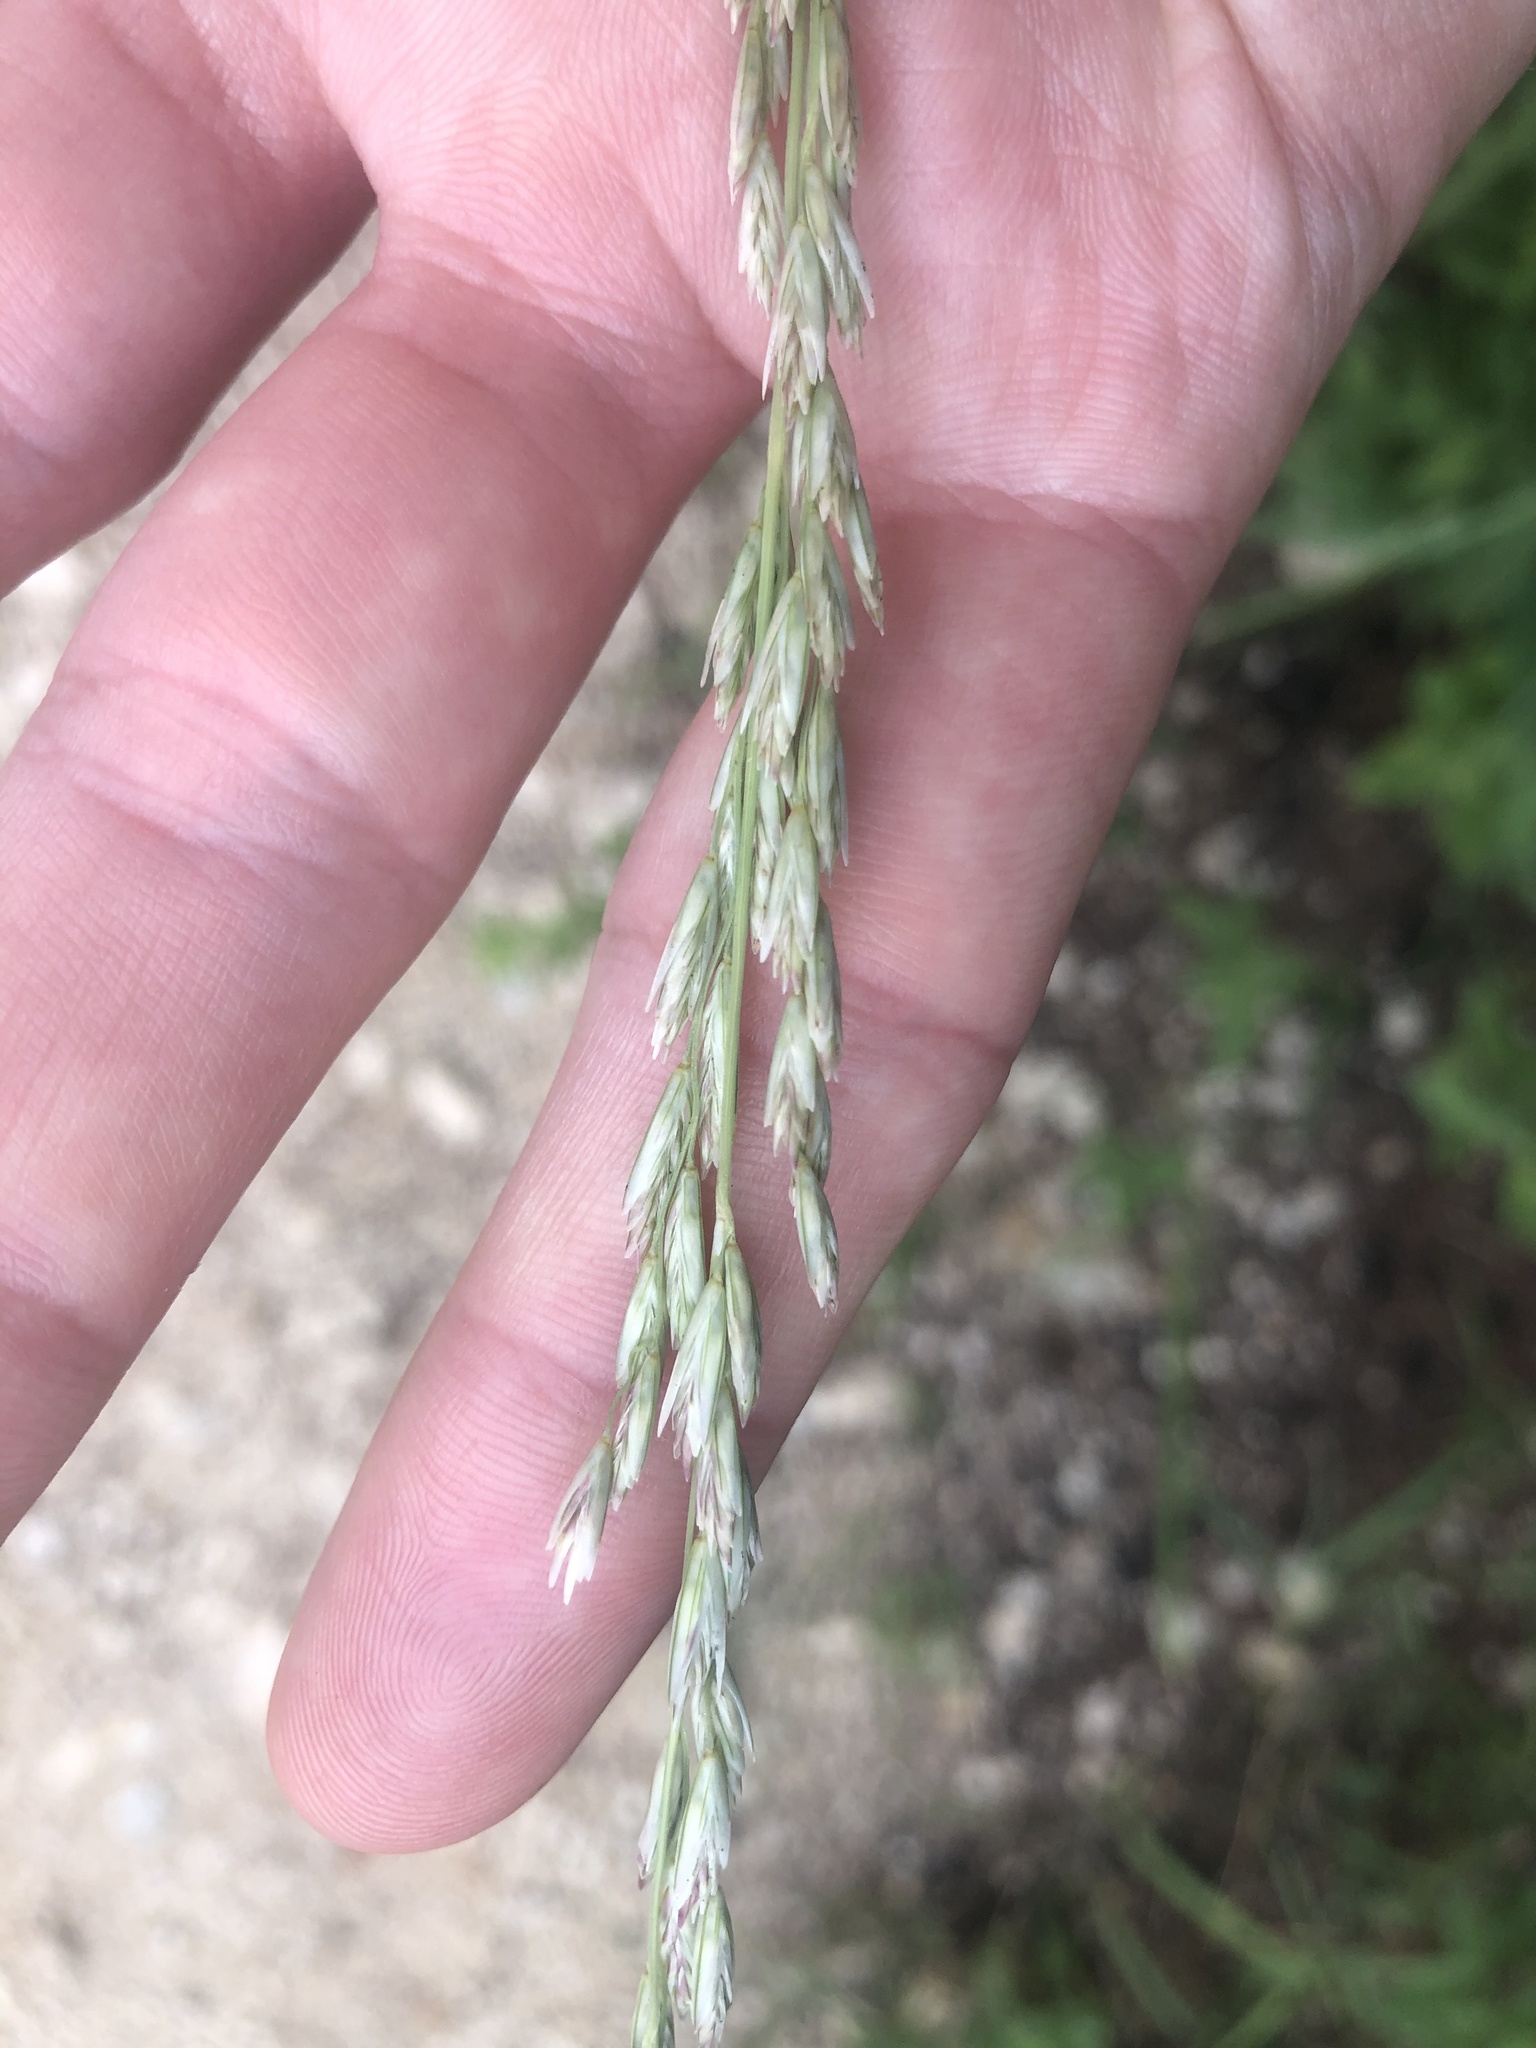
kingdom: Plantae
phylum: Tracheophyta
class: Liliopsida
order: Poales
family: Poaceae
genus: Tridentopsis
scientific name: Tridentopsis mutica
